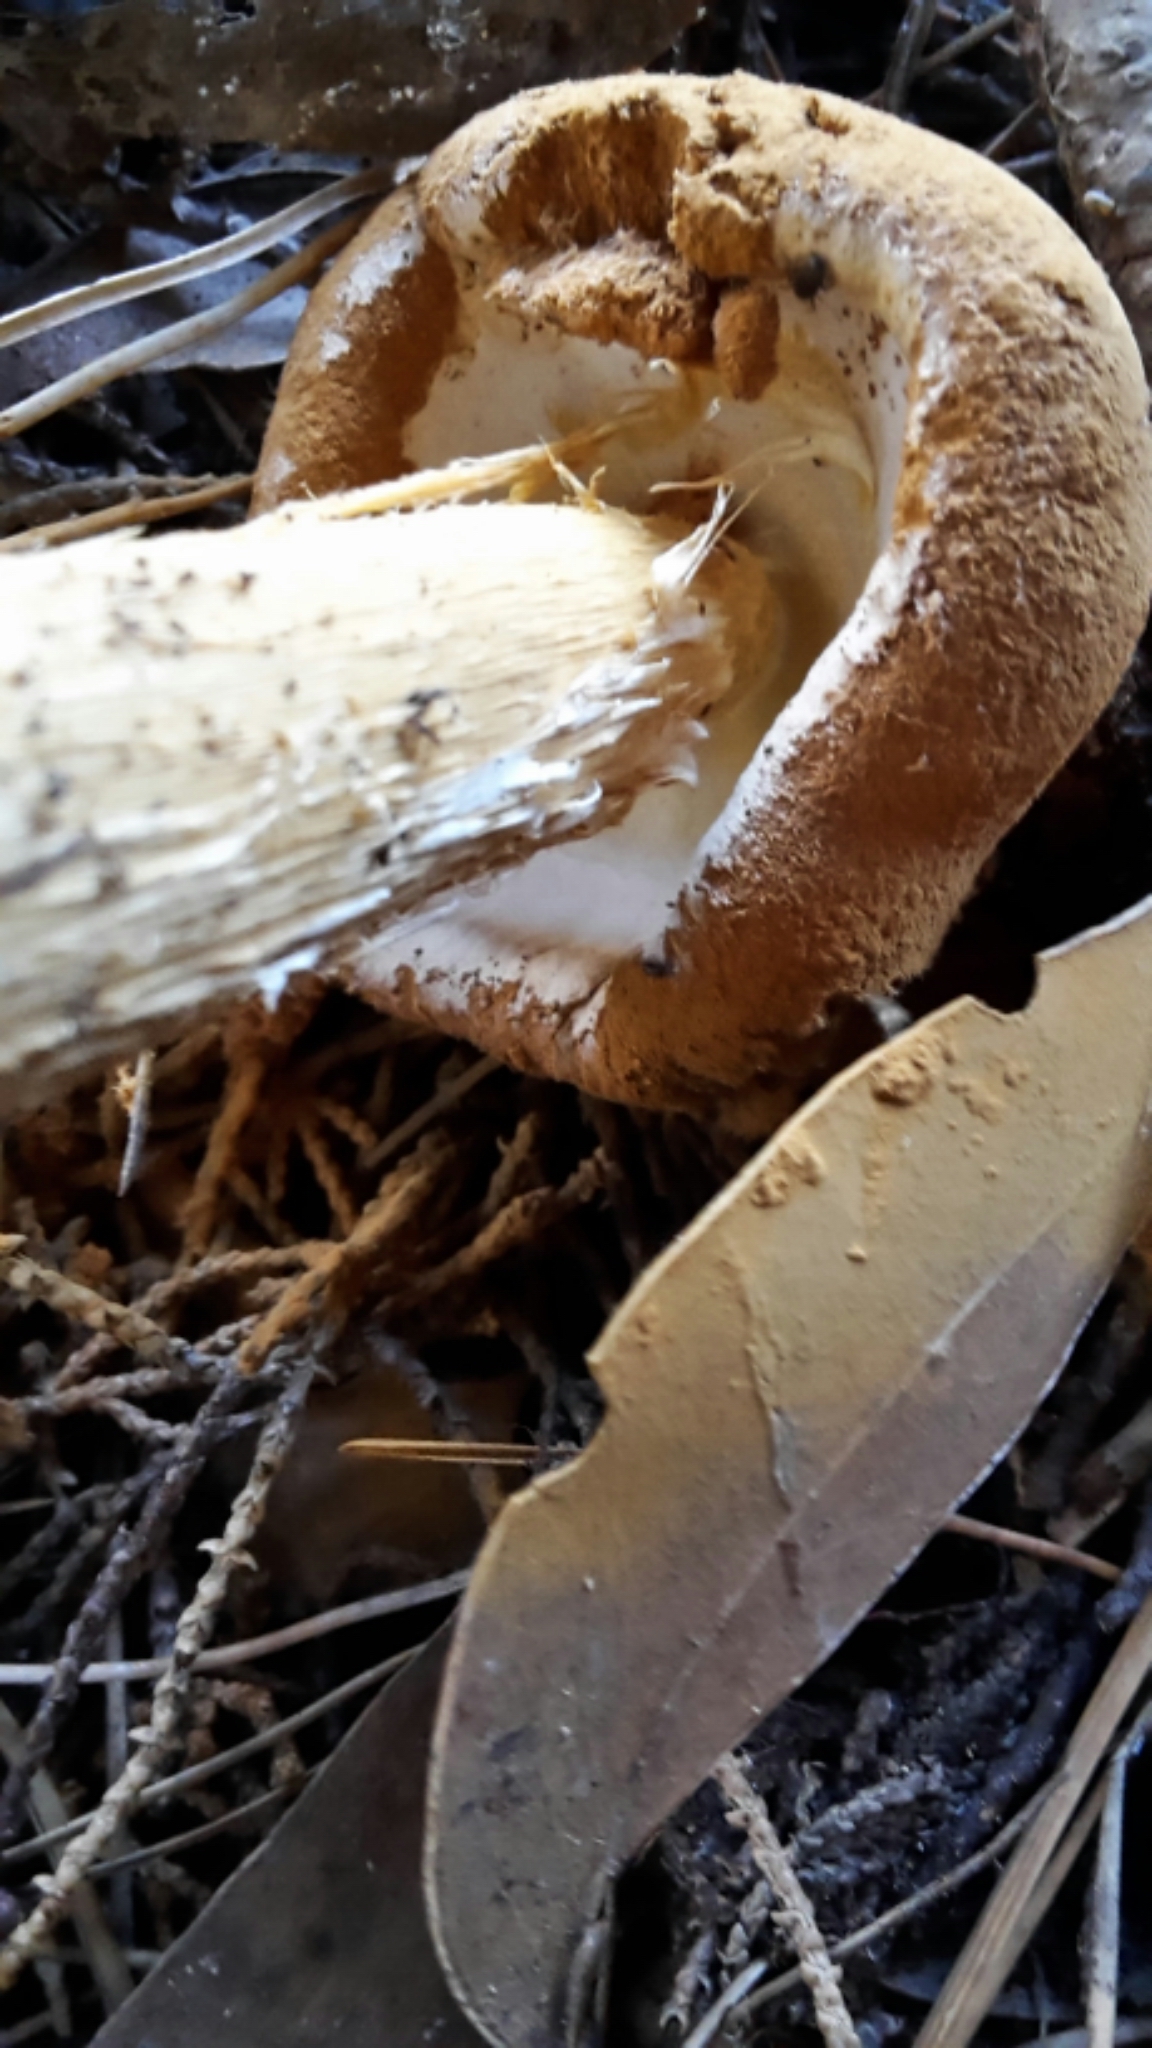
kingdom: Fungi
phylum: Basidiomycota
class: Agaricomycetes
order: Agaricales
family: Agaricaceae
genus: Battarrea
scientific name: Battarrea phalloides
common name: Sandy stiltball
